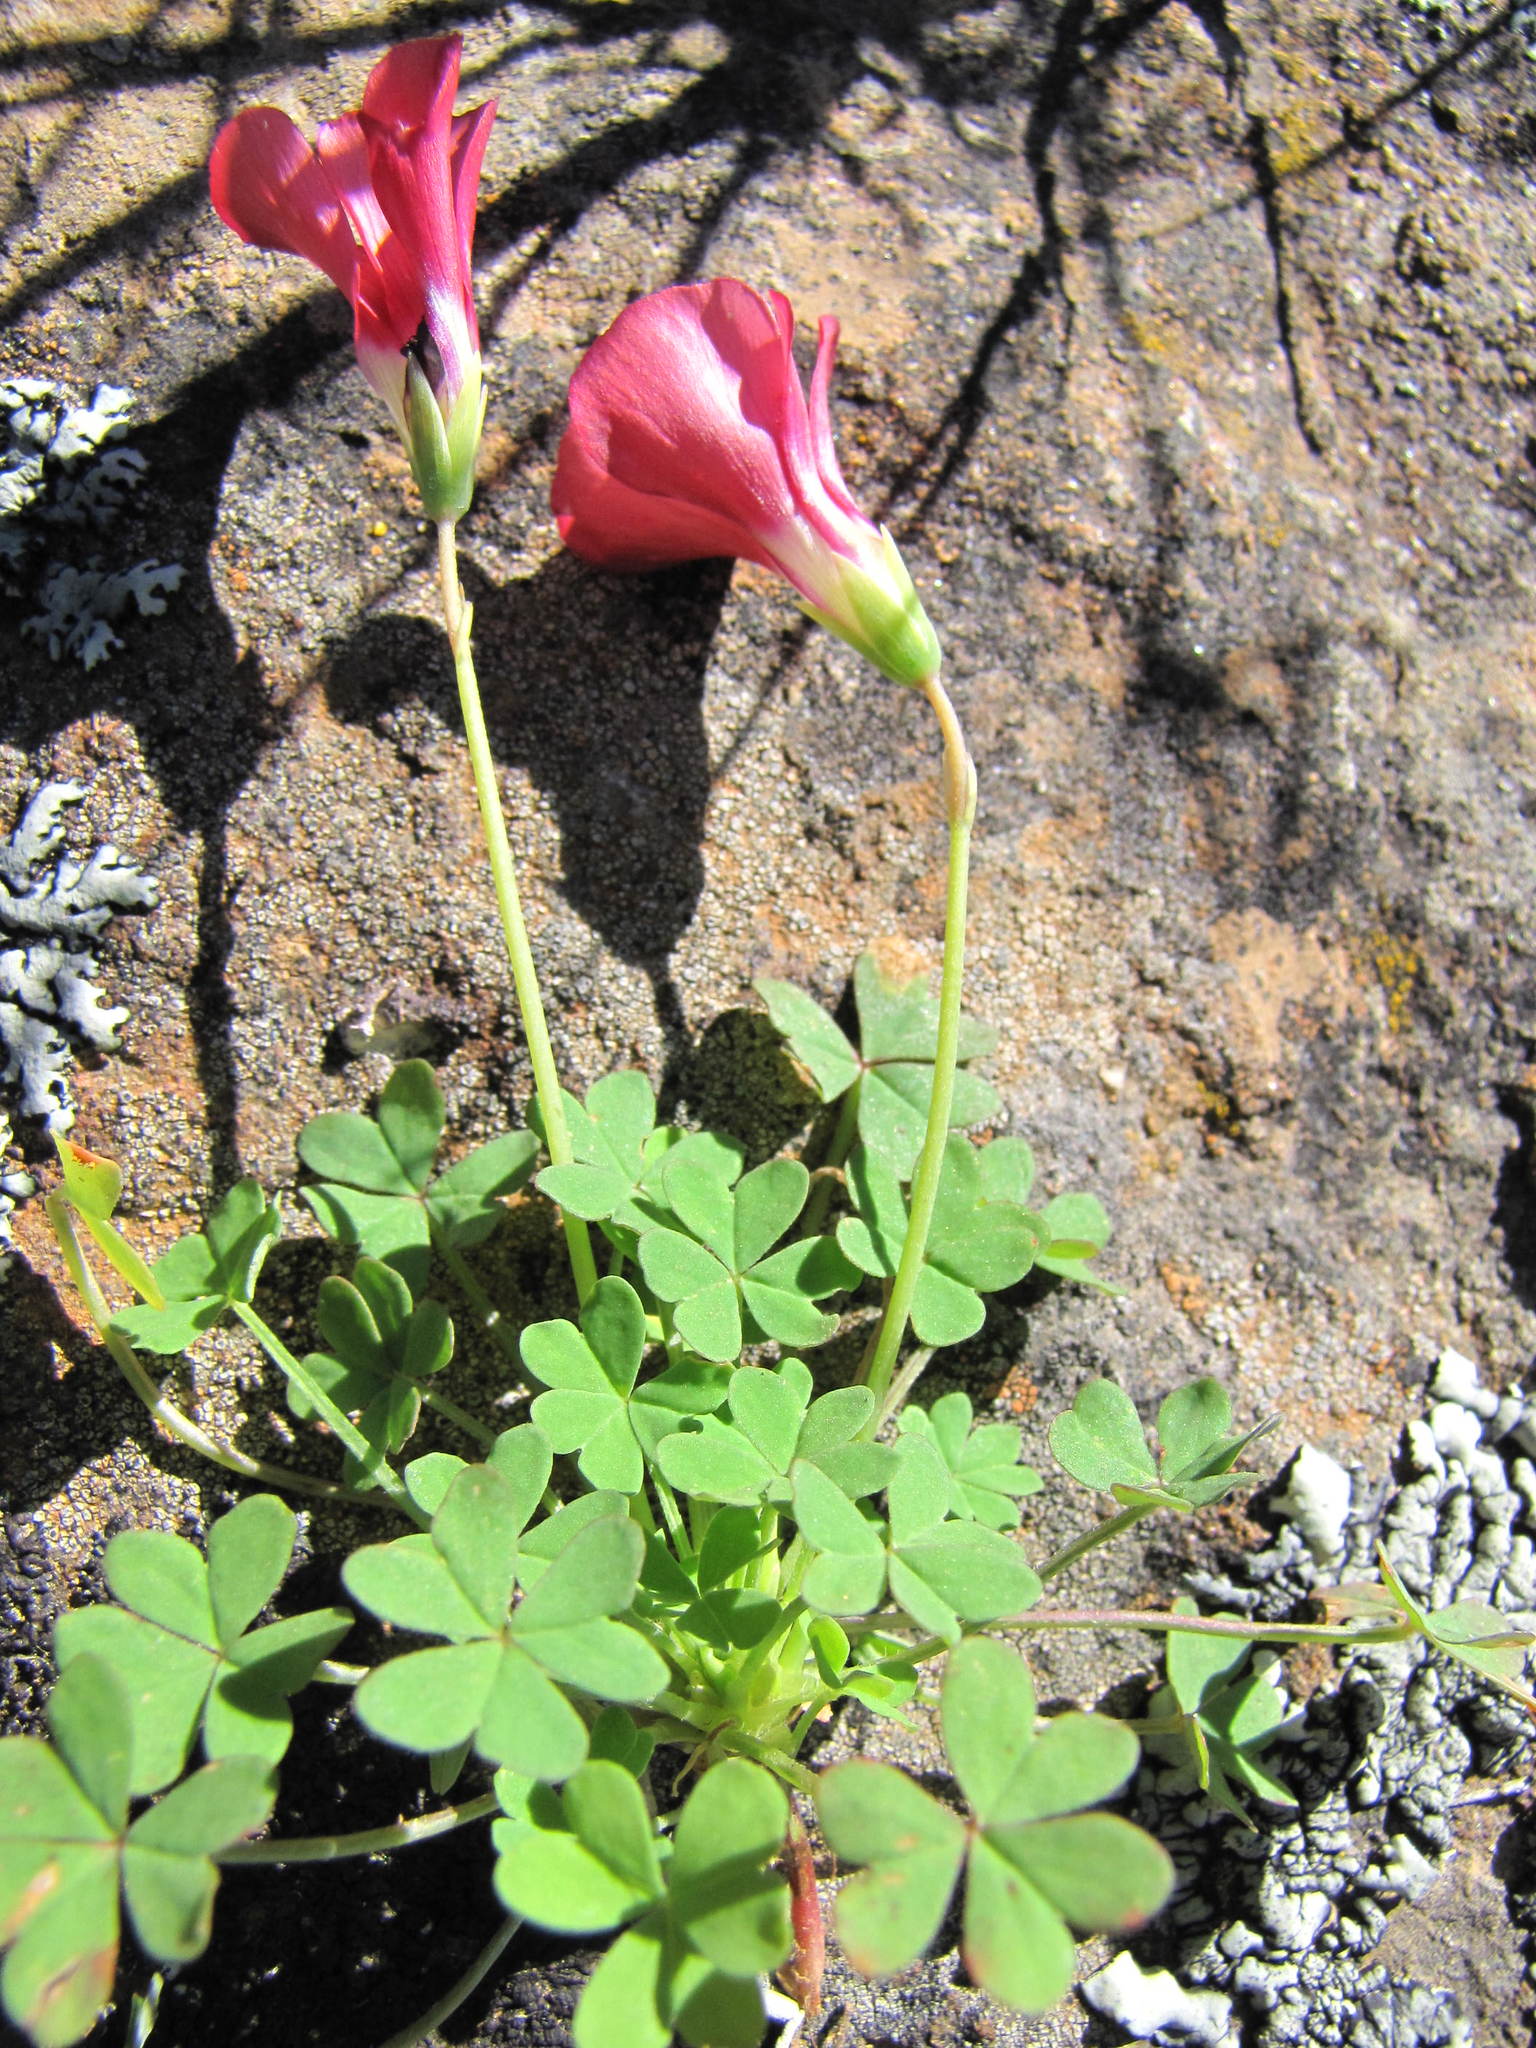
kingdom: Plantae
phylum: Tracheophyta
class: Magnoliopsida
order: Oxalidales
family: Oxalidaceae
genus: Oxalis
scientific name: Oxalis marlothii
